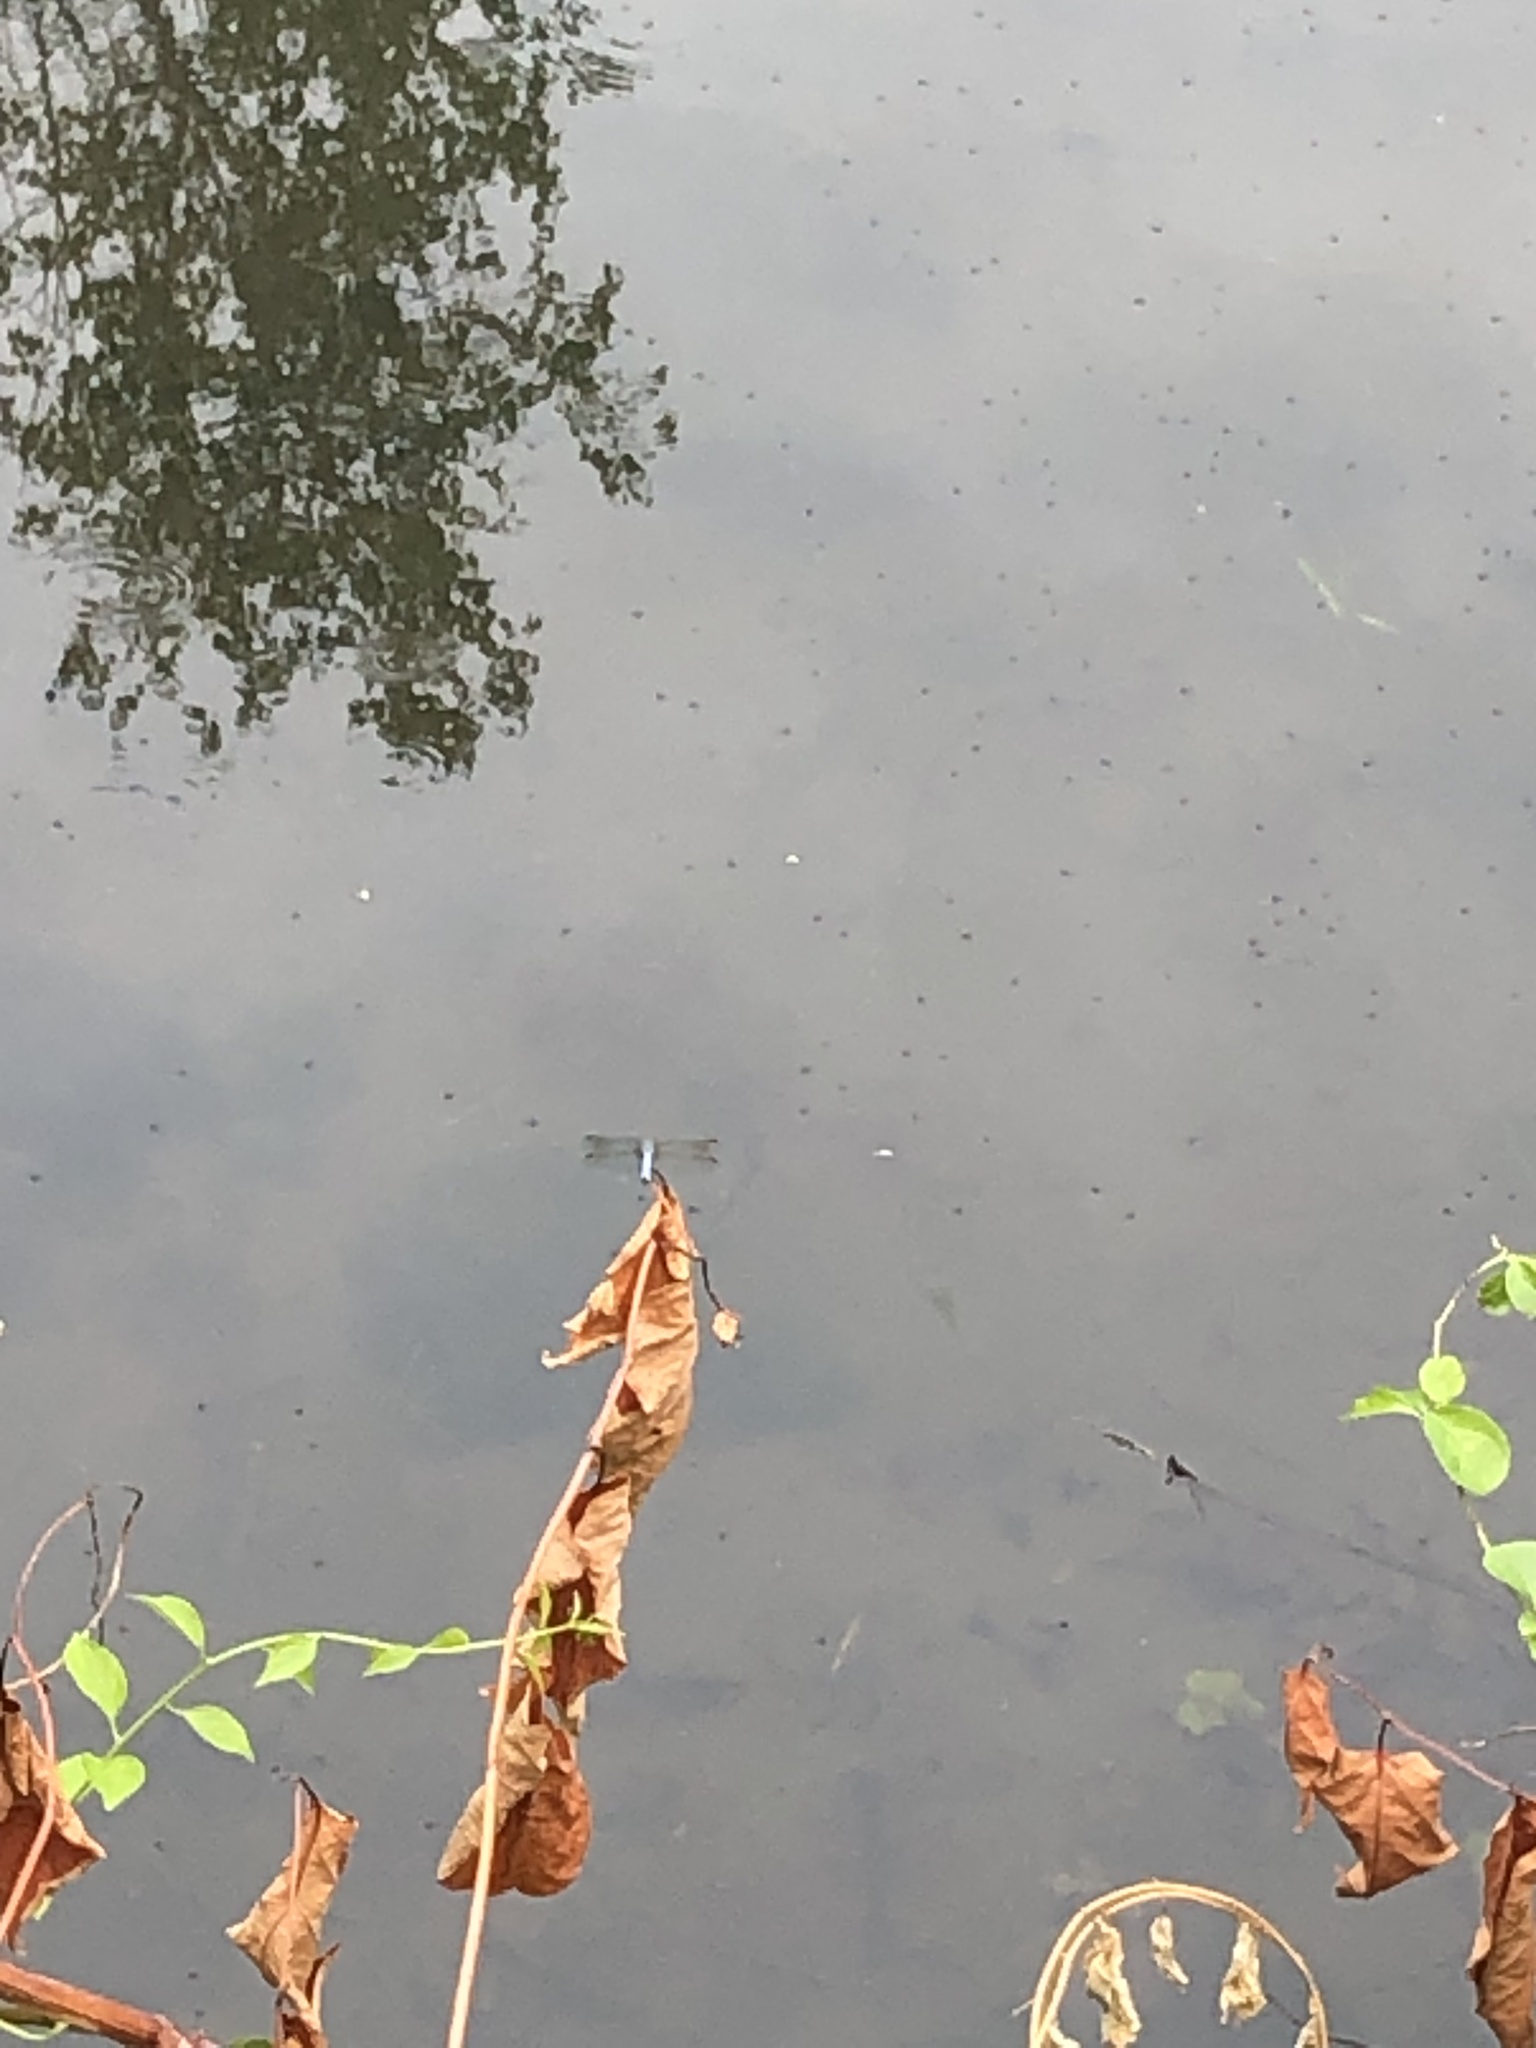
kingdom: Animalia
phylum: Arthropoda
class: Insecta
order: Odonata
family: Libellulidae
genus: Pachydiplax
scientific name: Pachydiplax longipennis
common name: Blue dasher
